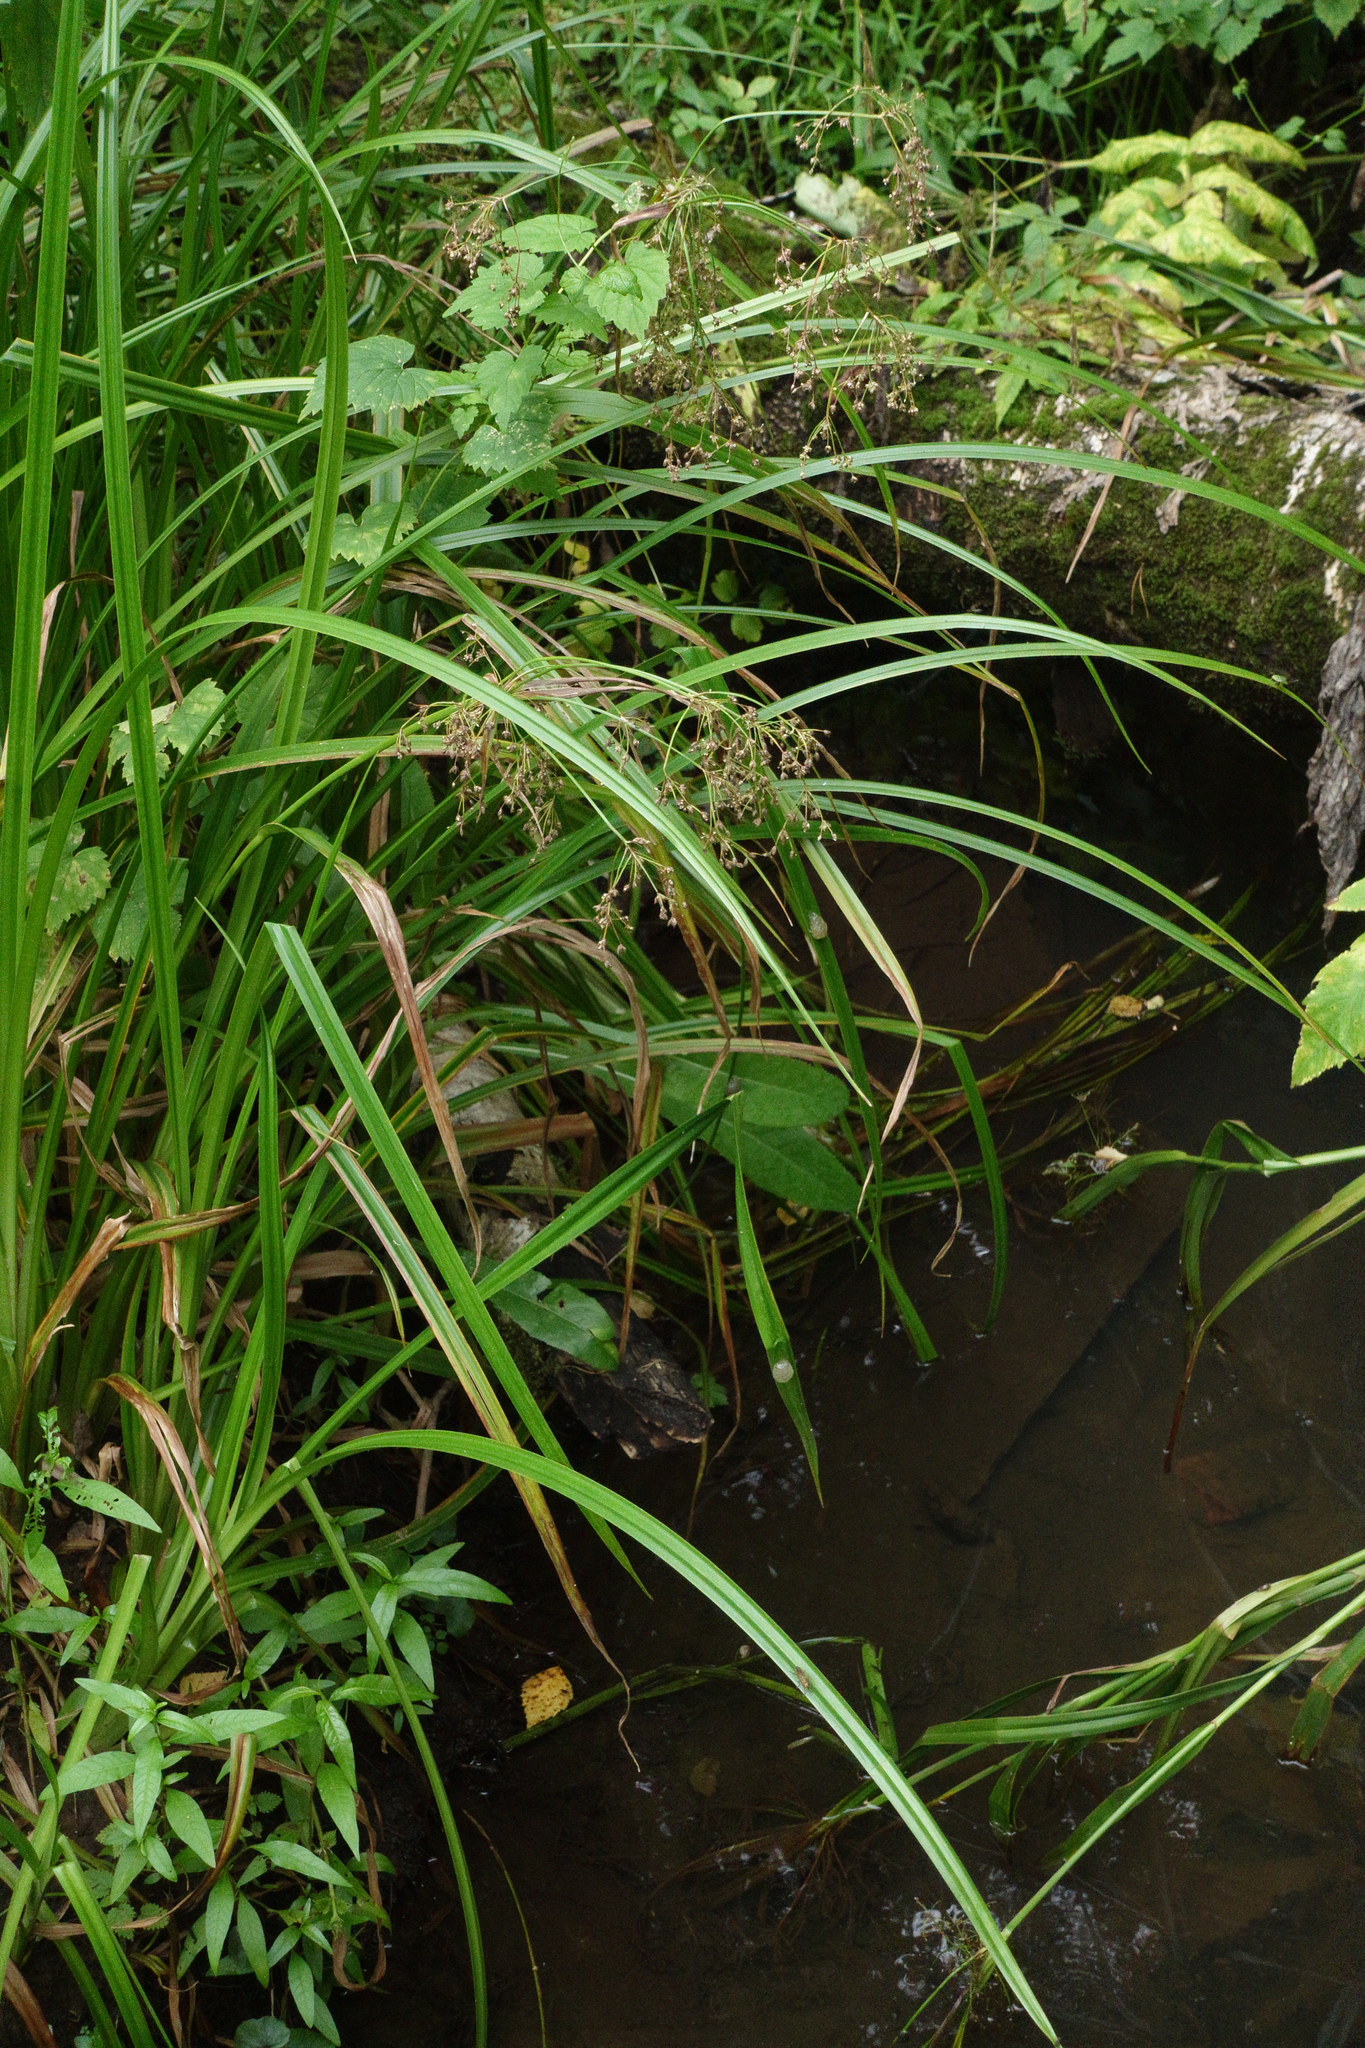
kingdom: Plantae
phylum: Tracheophyta
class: Liliopsida
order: Poales
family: Cyperaceae
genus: Scirpus
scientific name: Scirpus sylvaticus
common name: Wood club-rush
